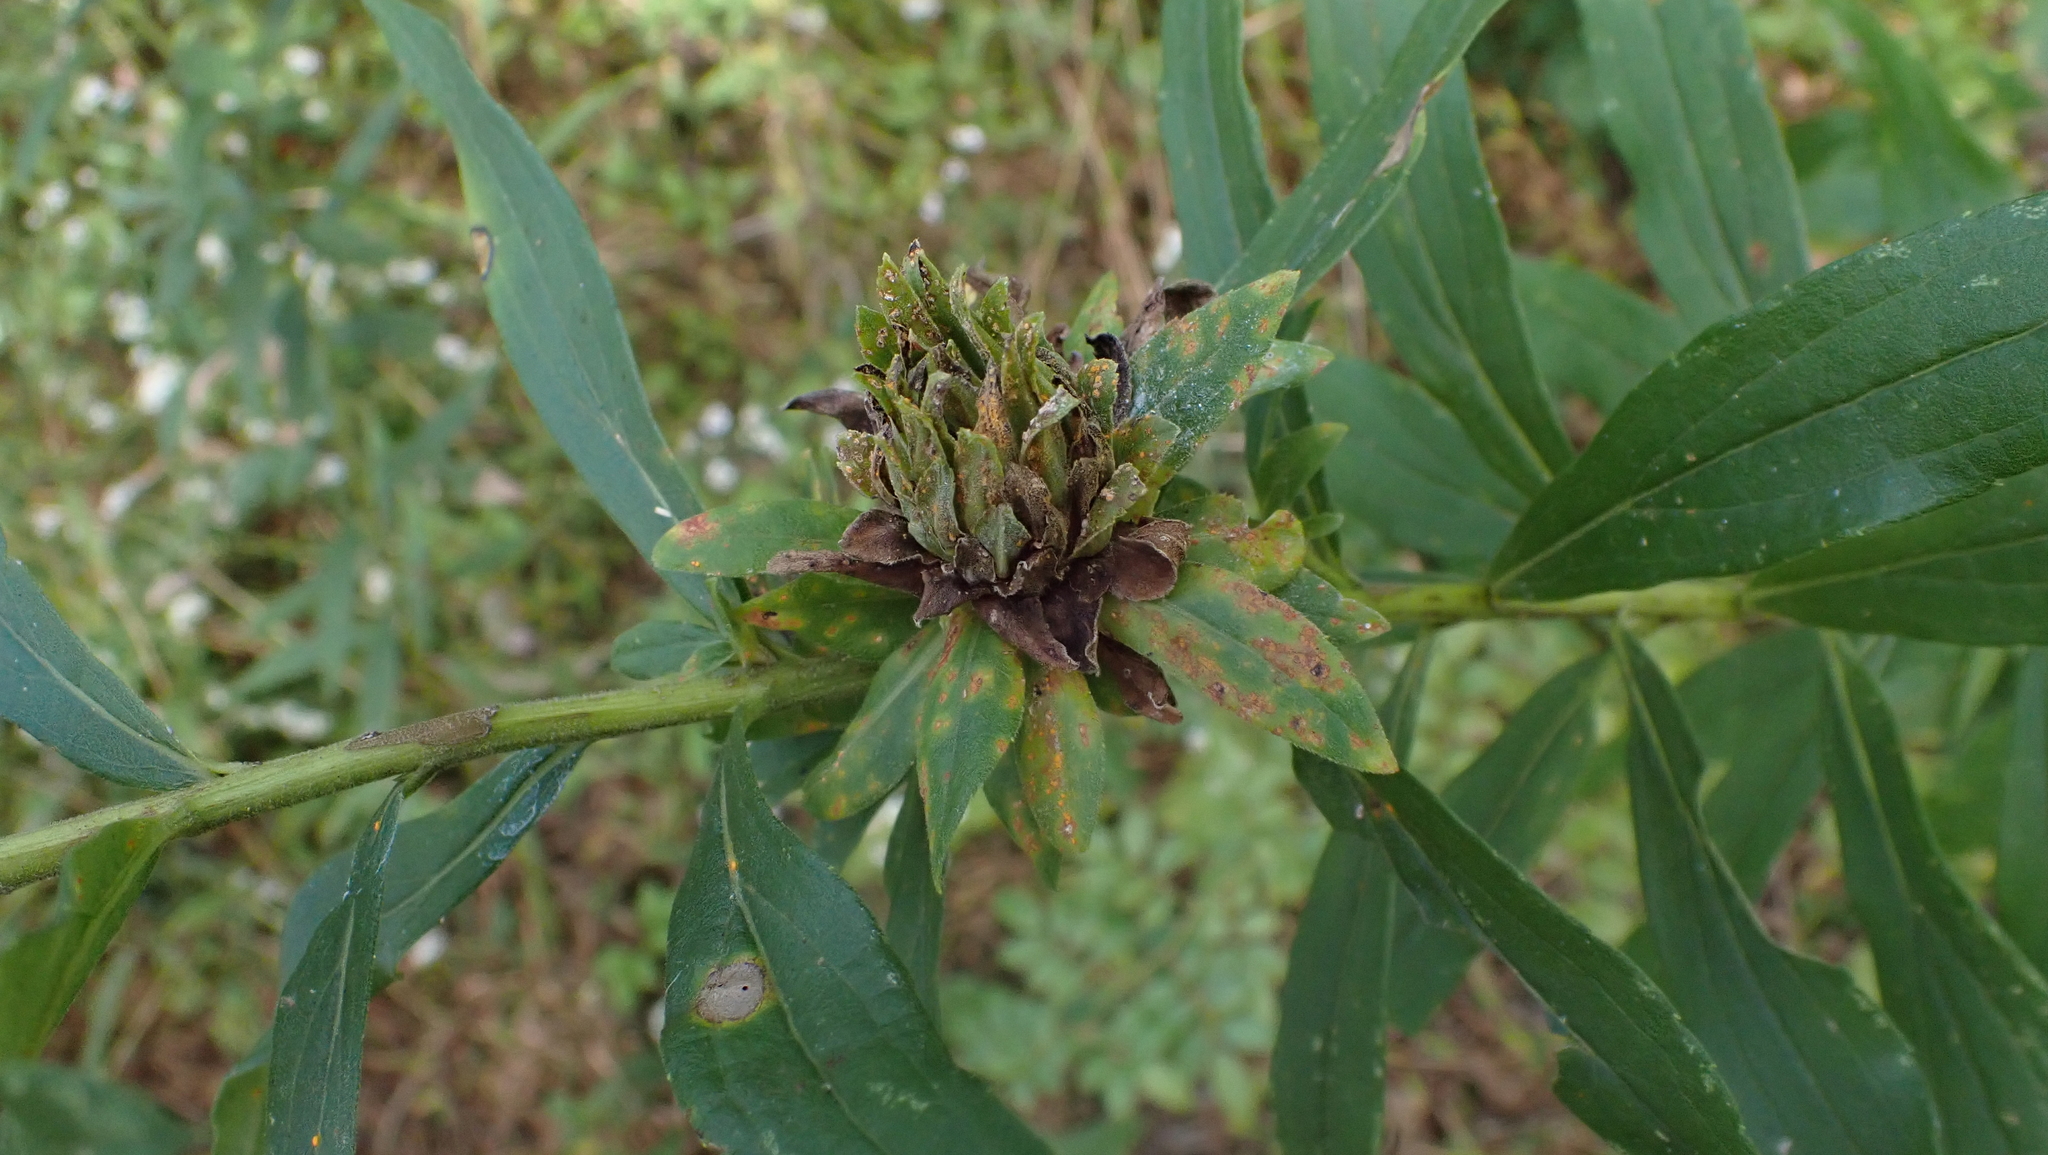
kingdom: Animalia
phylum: Arthropoda
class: Insecta
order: Diptera
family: Tephritidae
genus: Procecidochares
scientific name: Procecidochares atra
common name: Goldenrod brussels sprout gall fly
